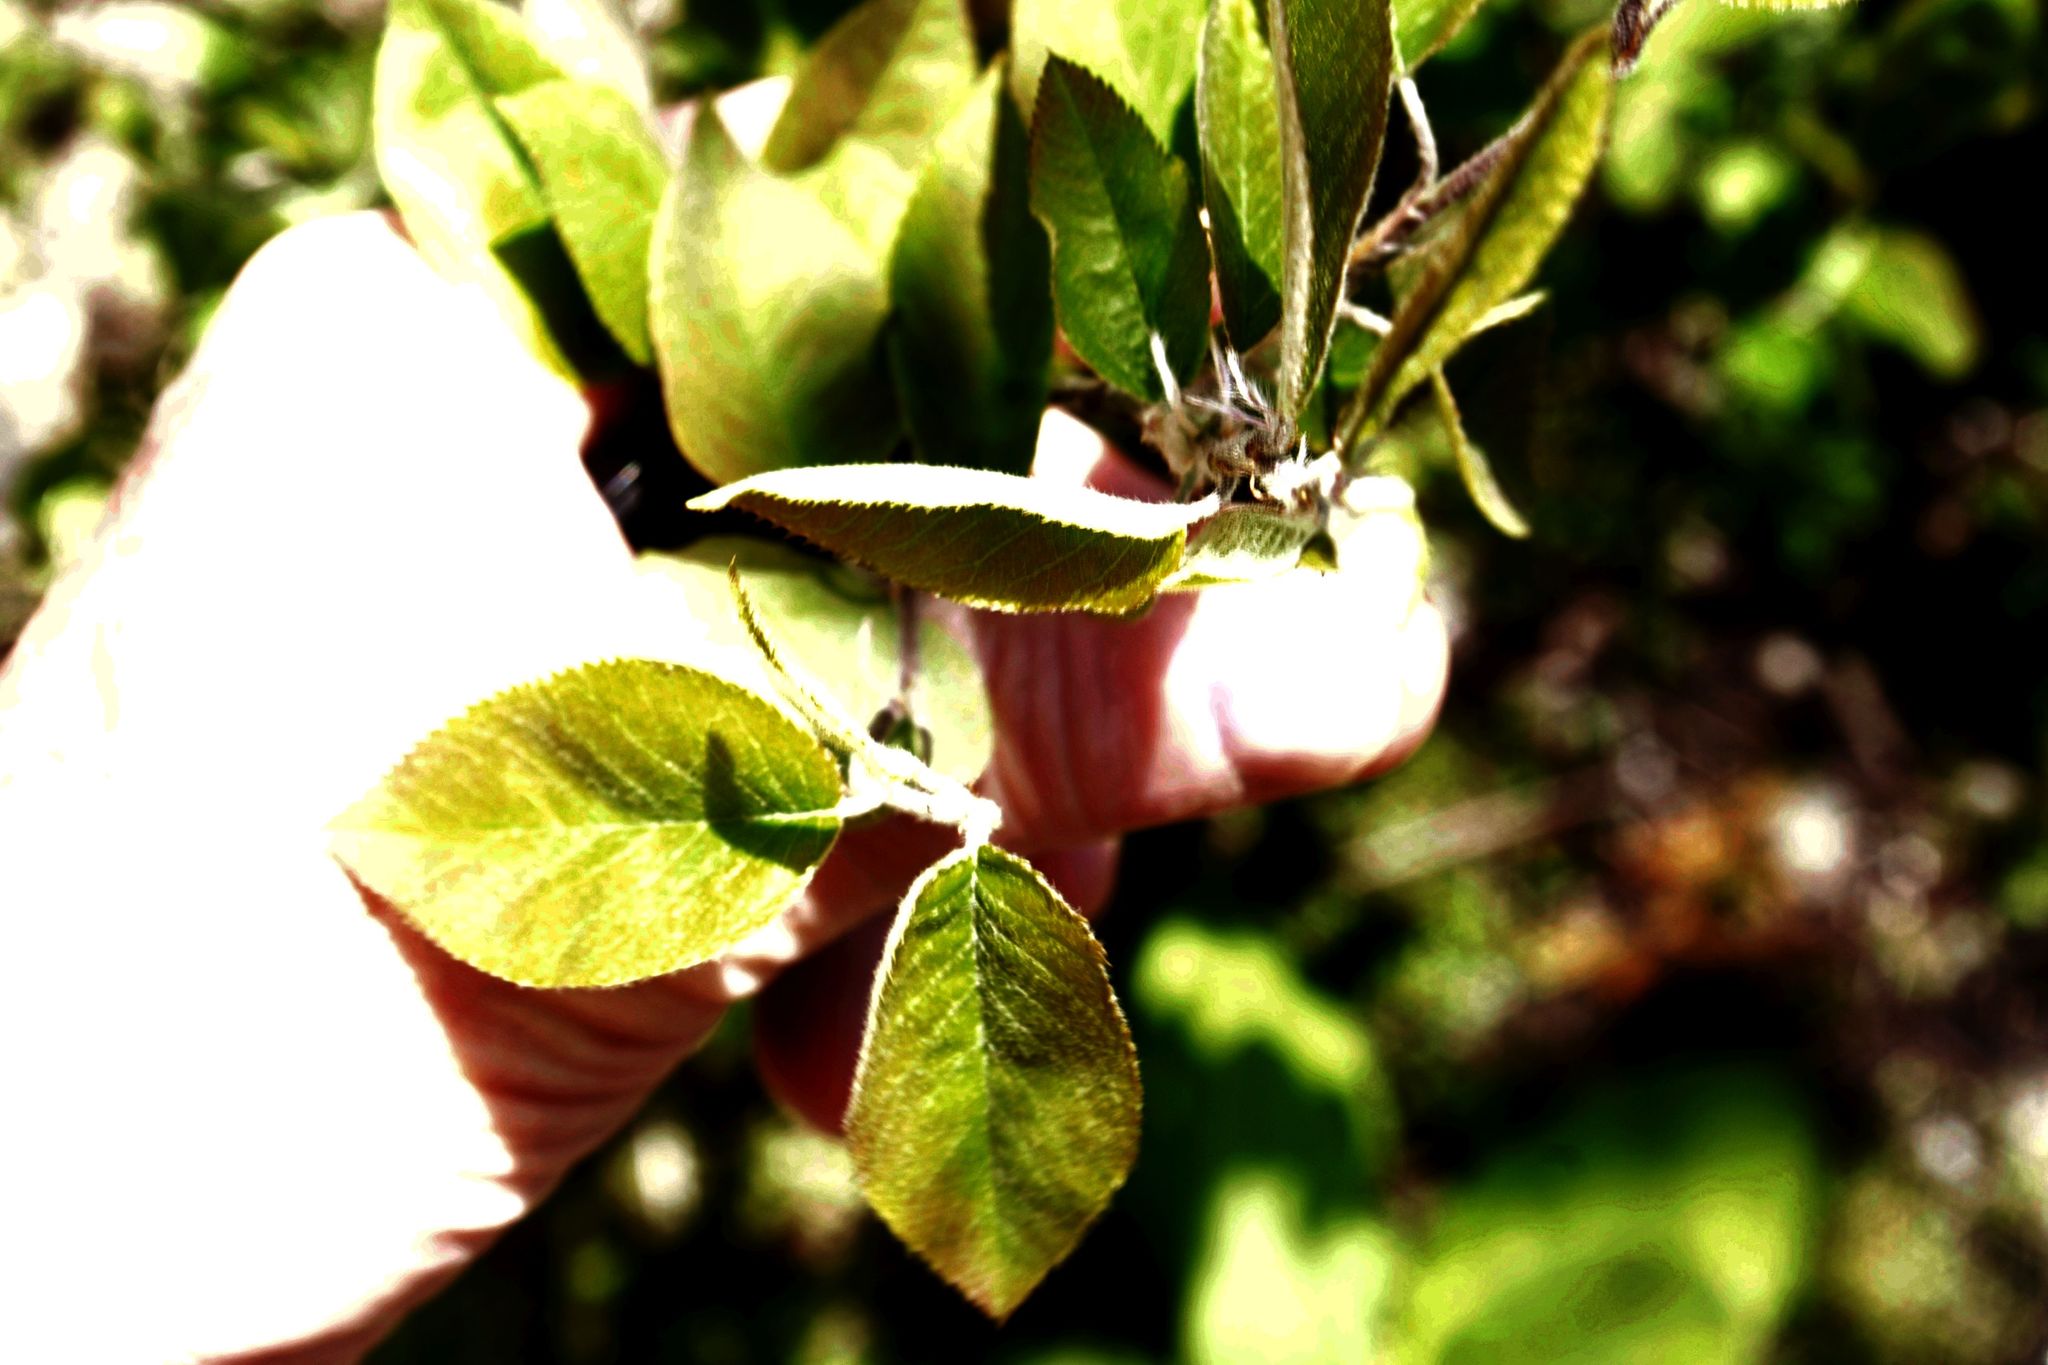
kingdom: Plantae
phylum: Tracheophyta
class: Magnoliopsida
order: Rosales
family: Rosaceae
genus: Amelanchier
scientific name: Amelanchier arborea
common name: Downy serviceberry
